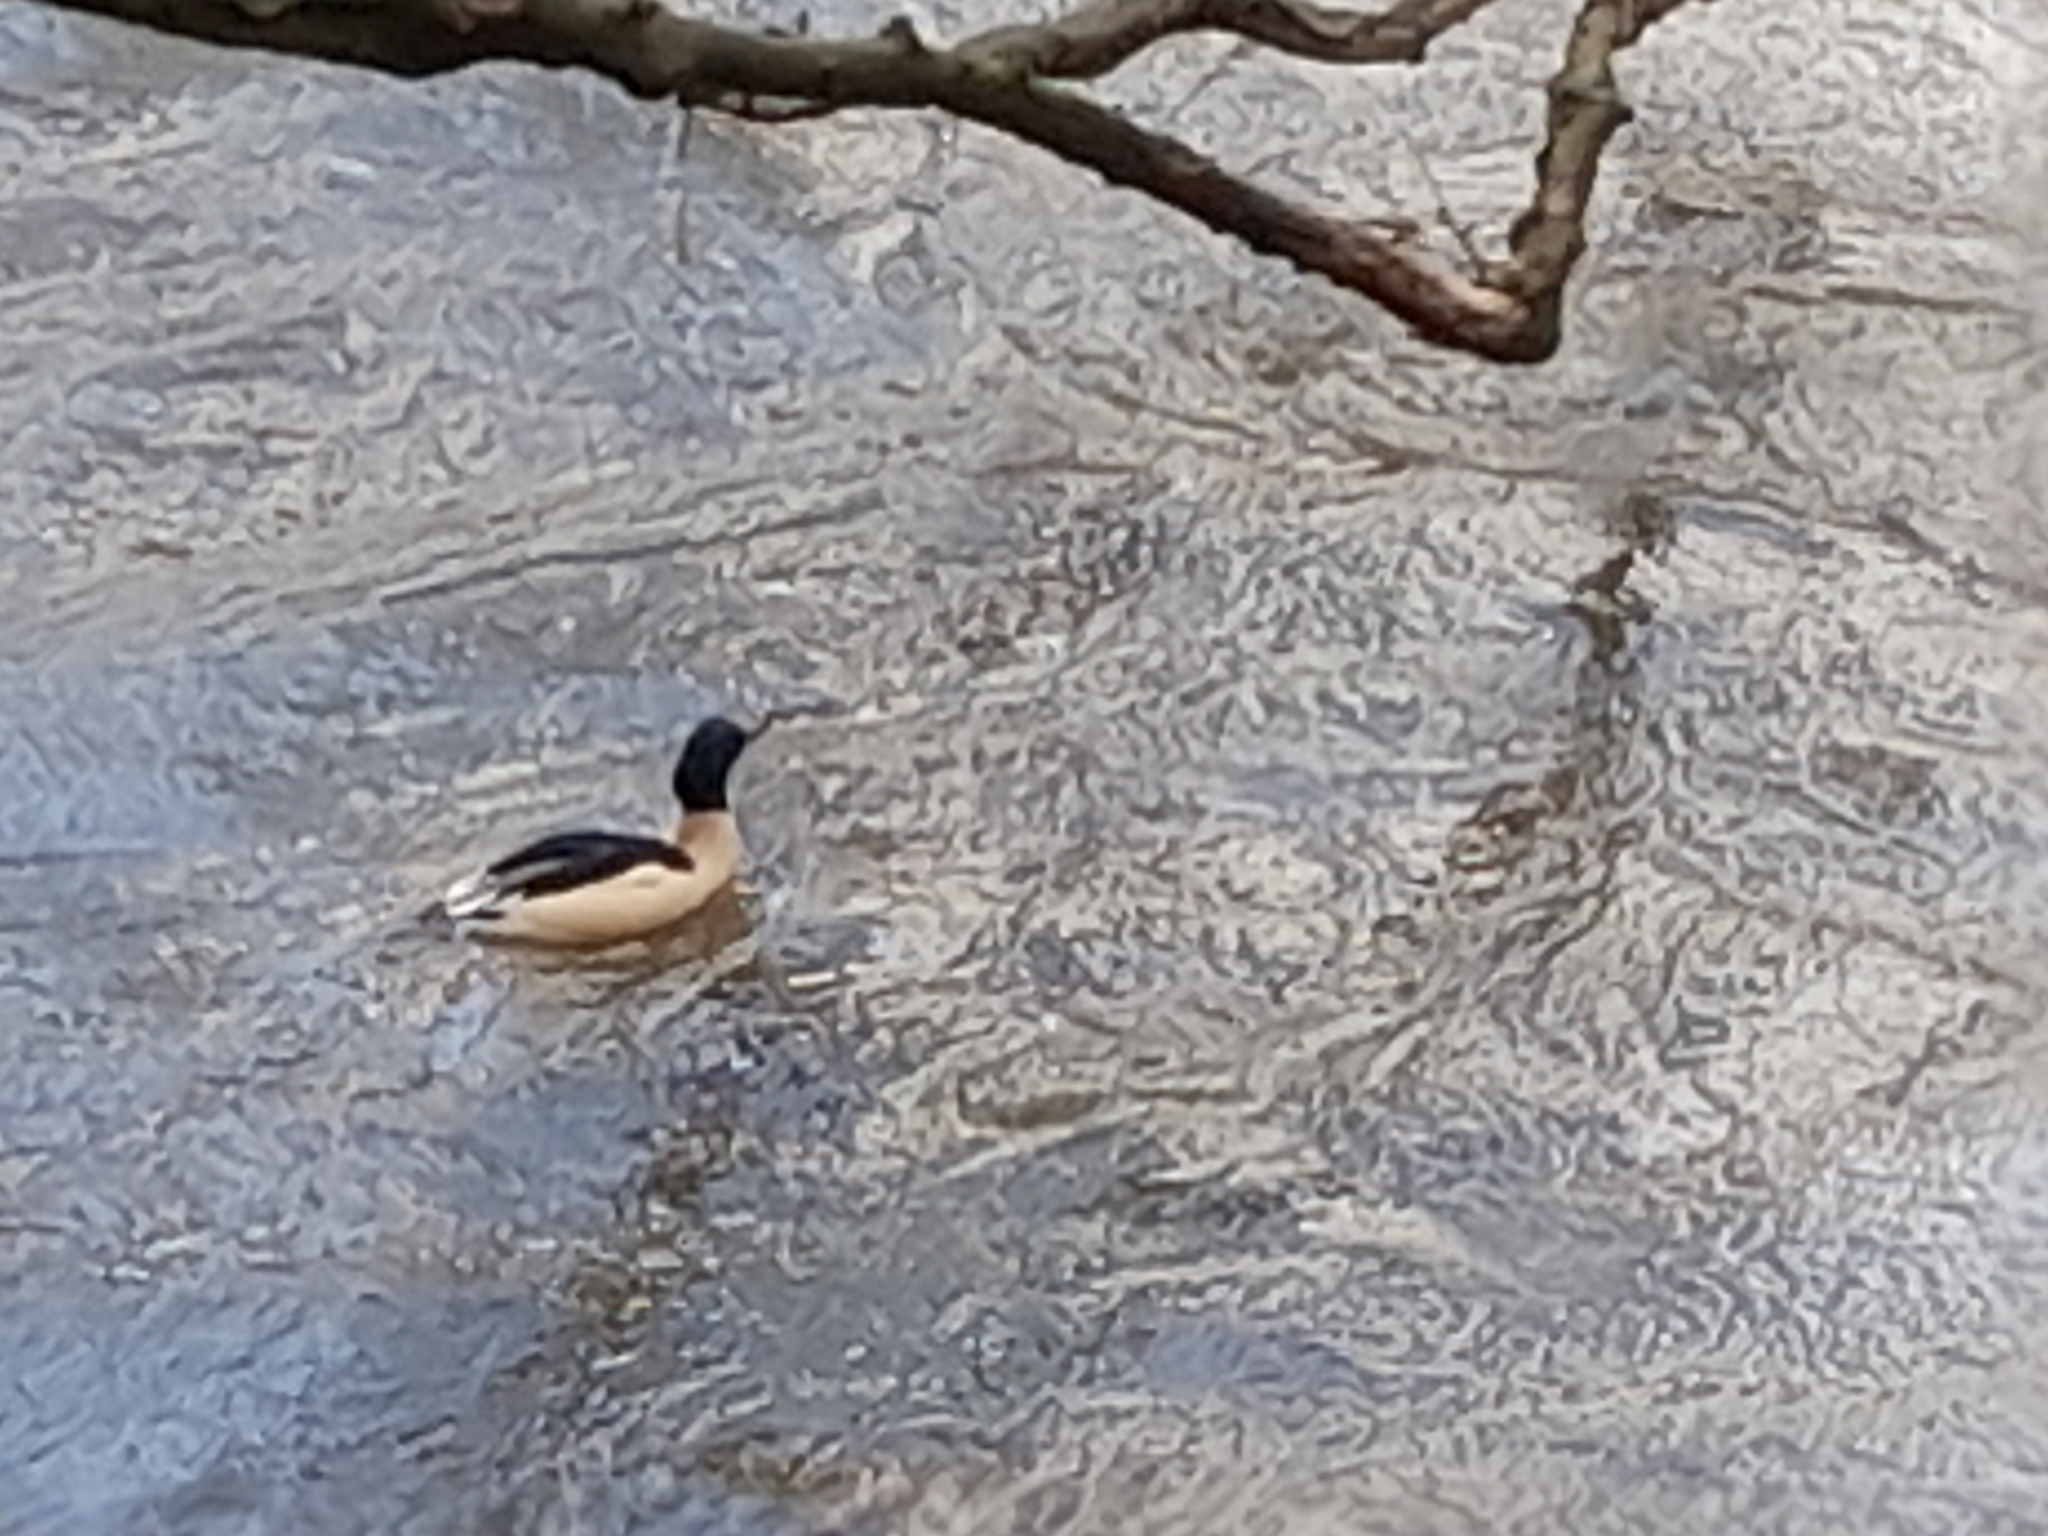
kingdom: Animalia
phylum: Chordata
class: Aves
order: Anseriformes
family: Anatidae
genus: Mergus
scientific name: Mergus merganser
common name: Common merganser
